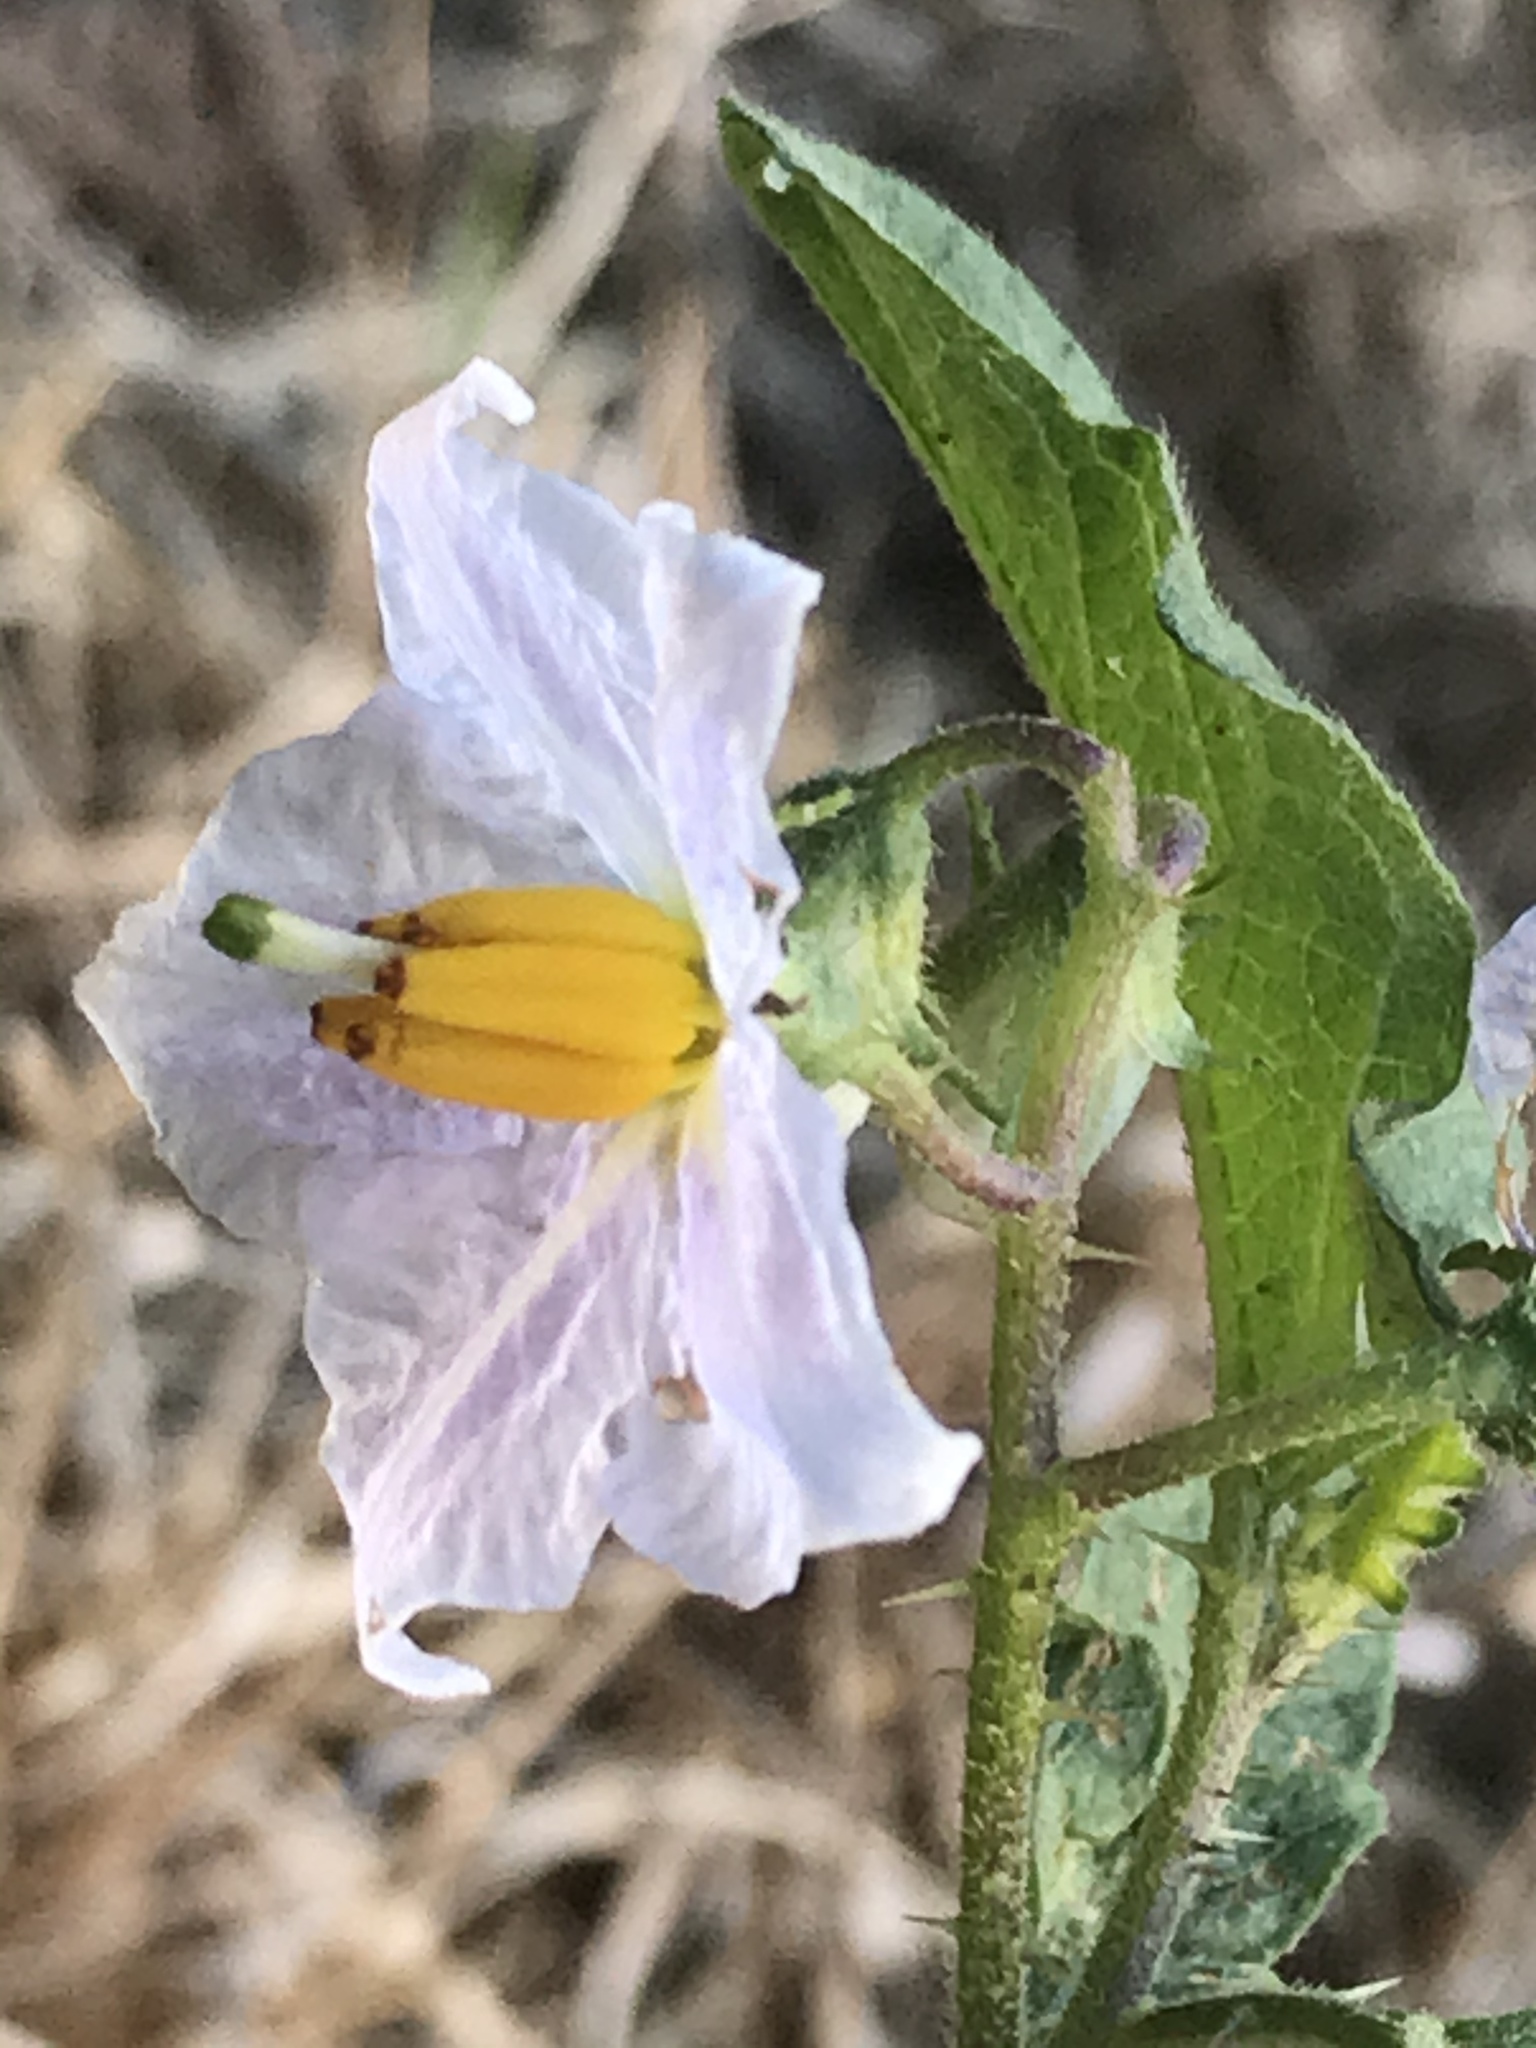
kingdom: Plantae
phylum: Tracheophyta
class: Magnoliopsida
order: Solanales
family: Solanaceae
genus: Solanum
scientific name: Solanum carolinense
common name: Horse-nettle
